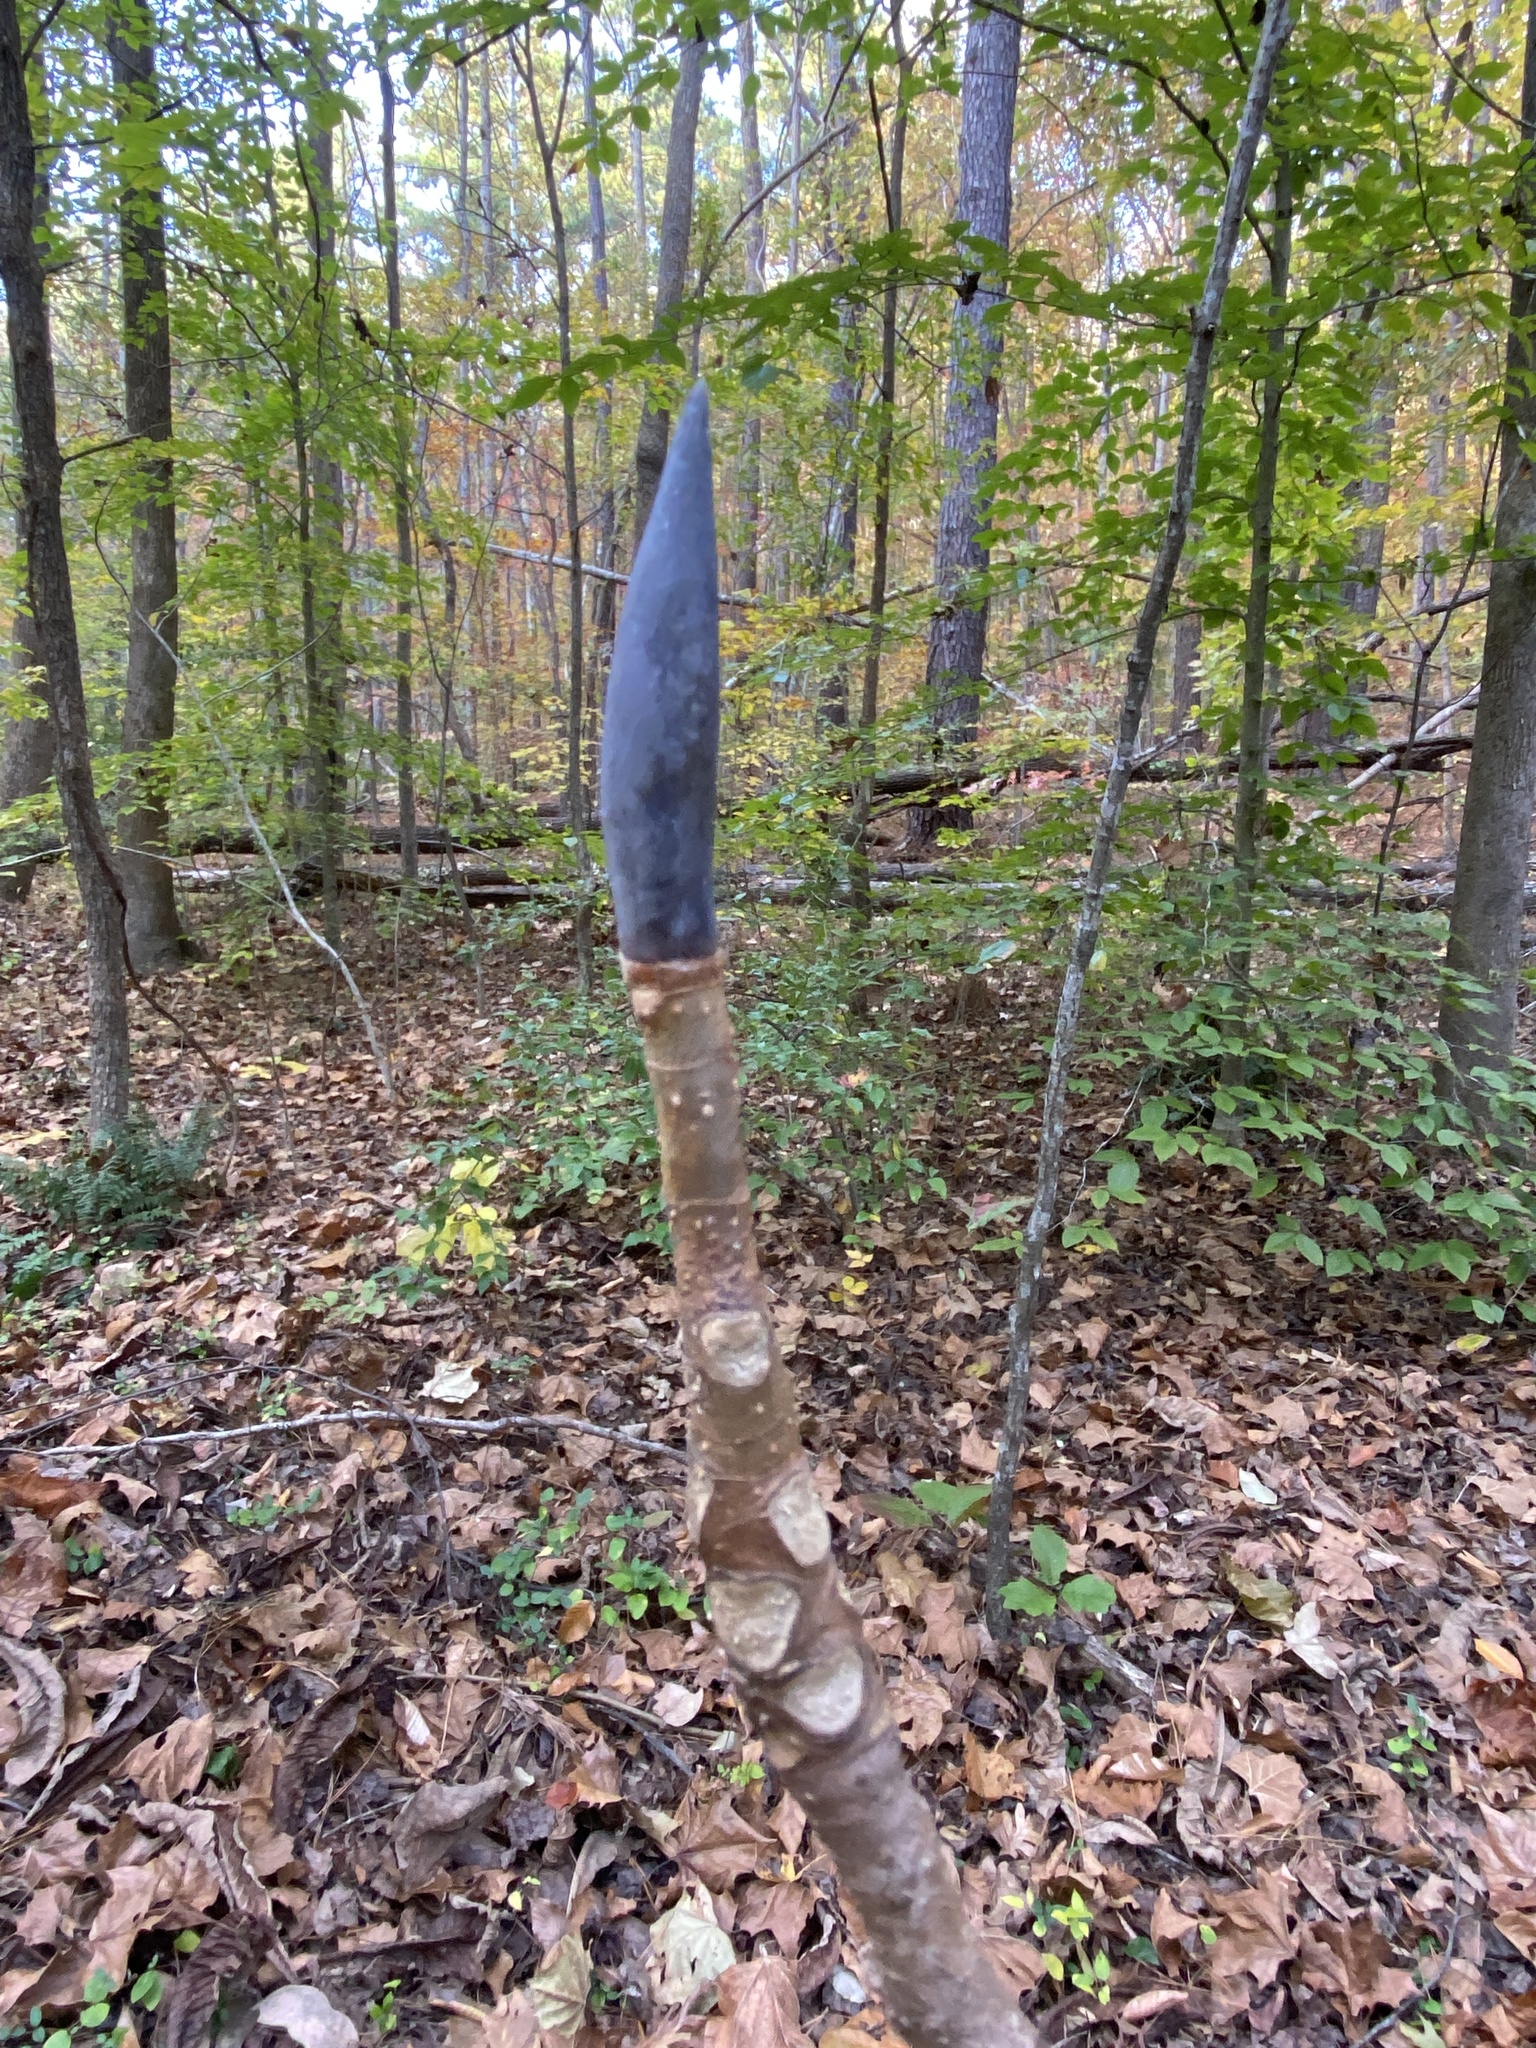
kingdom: Plantae
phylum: Tracheophyta
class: Magnoliopsida
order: Magnoliales
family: Magnoliaceae
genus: Magnolia
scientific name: Magnolia tripetala
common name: Umbrella magnolia
